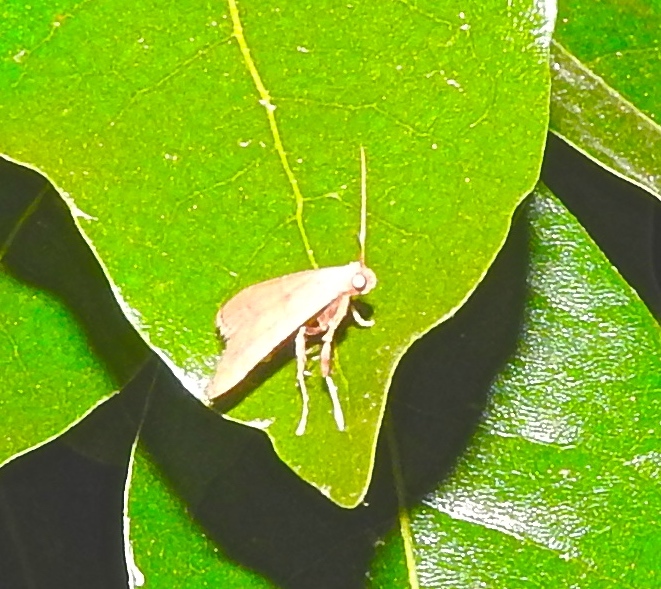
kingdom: Animalia
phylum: Arthropoda
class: Insecta
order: Lepidoptera
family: Pyralidae
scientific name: Pyralidae
